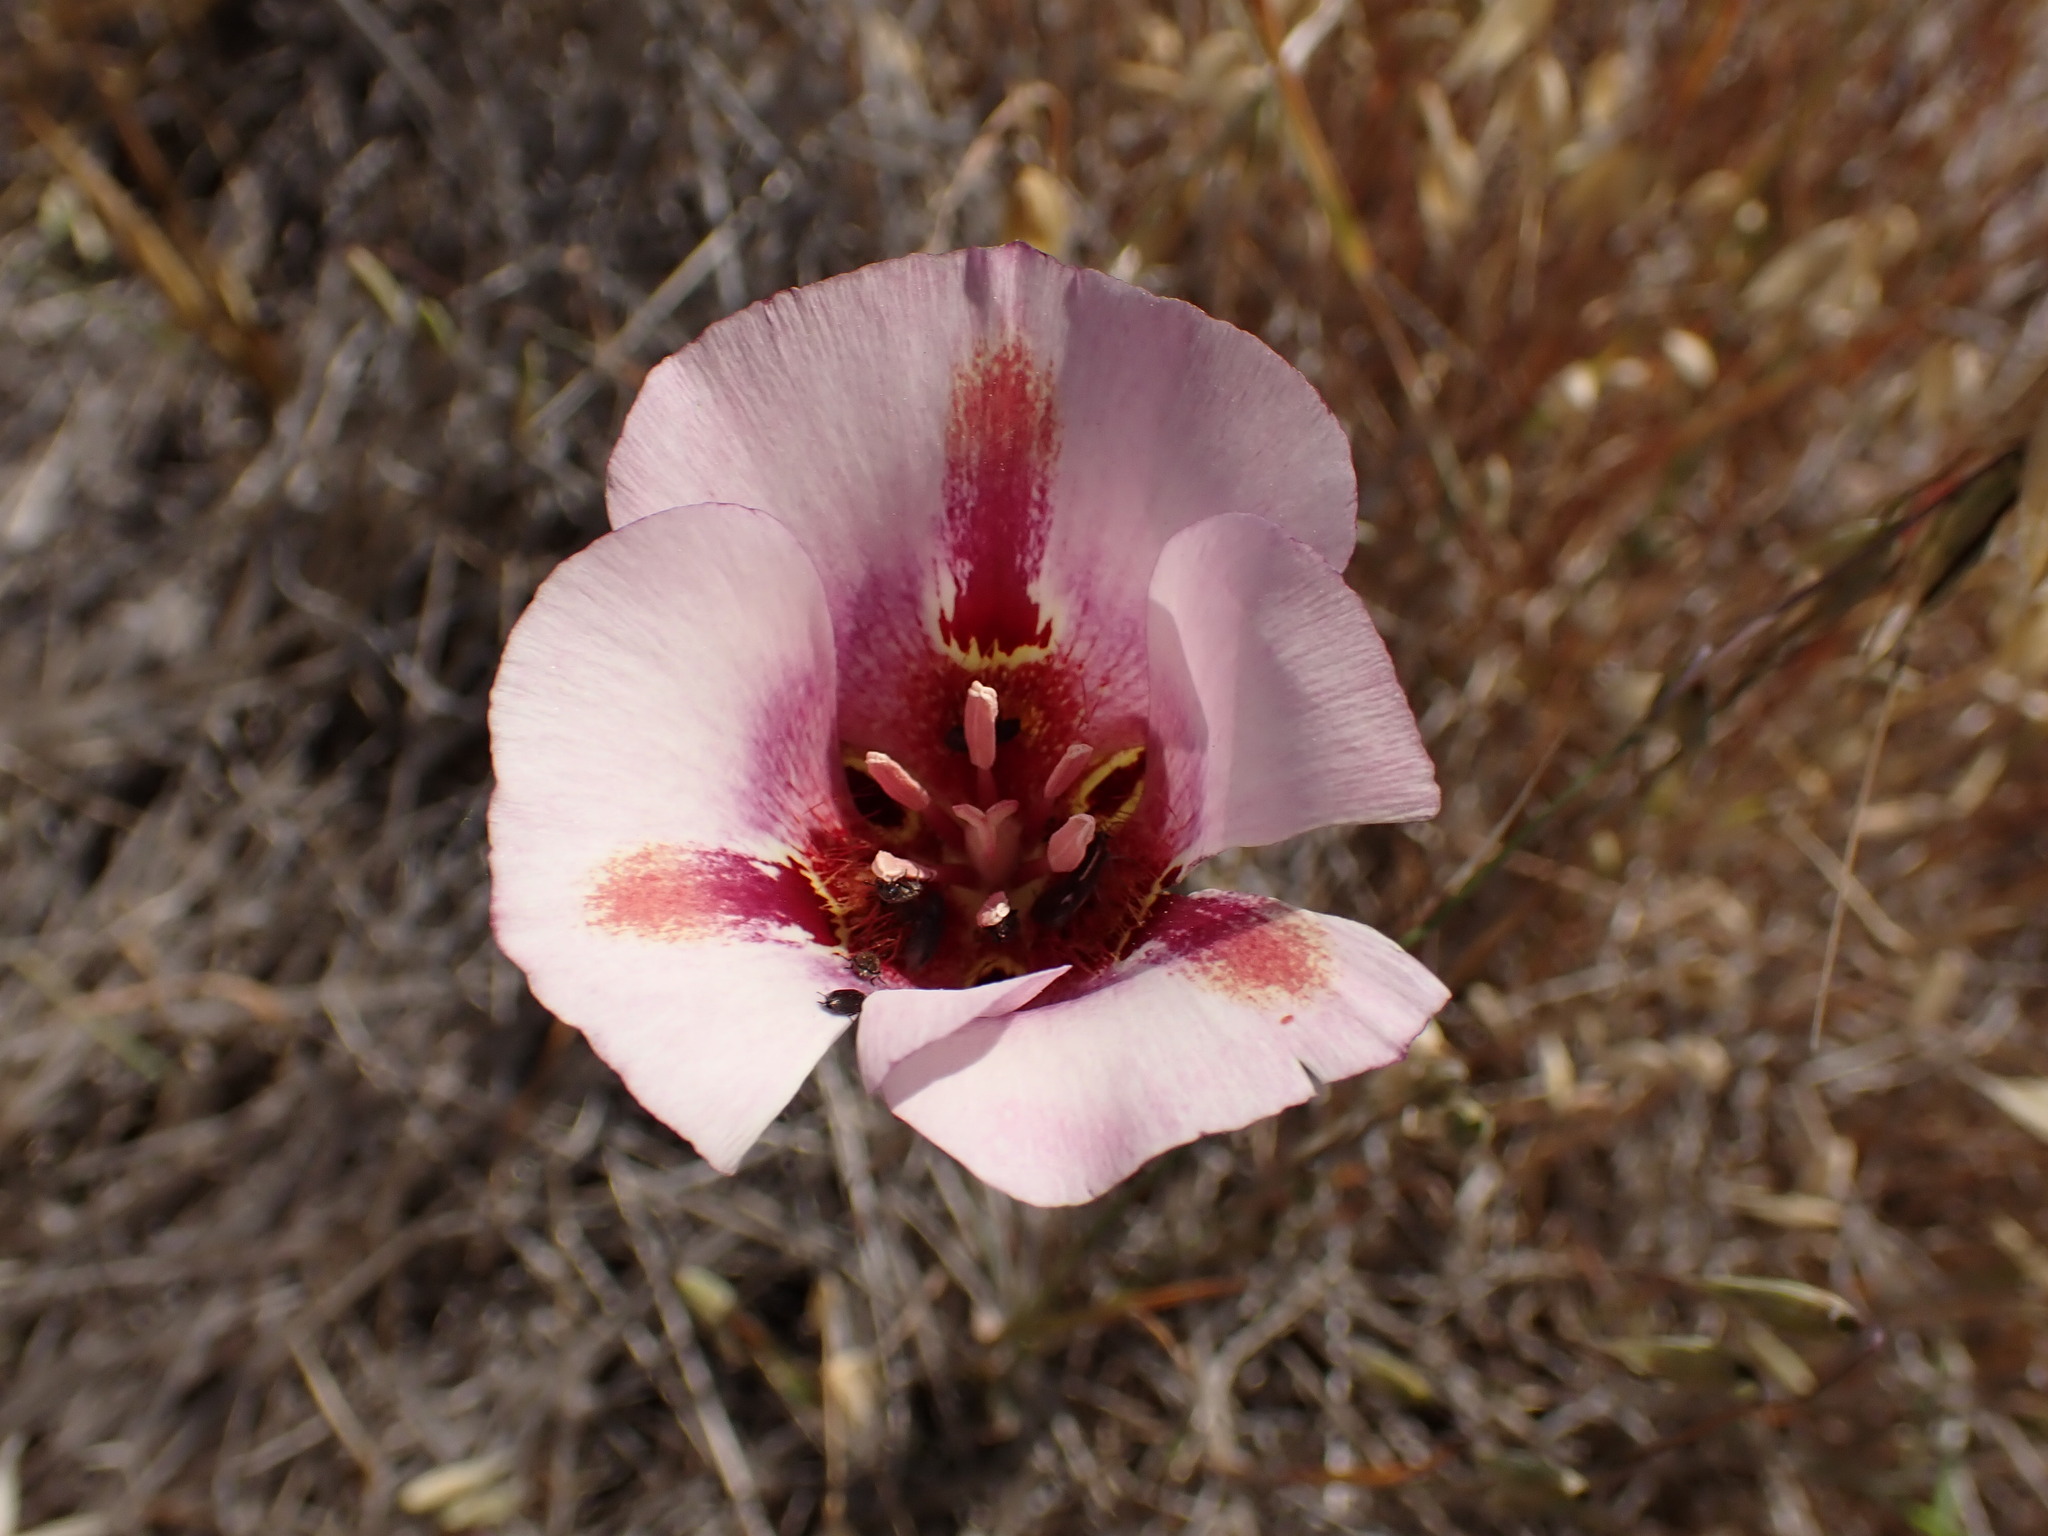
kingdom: Plantae
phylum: Tracheophyta
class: Liliopsida
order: Liliales
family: Liliaceae
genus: Calochortus
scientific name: Calochortus venustus
